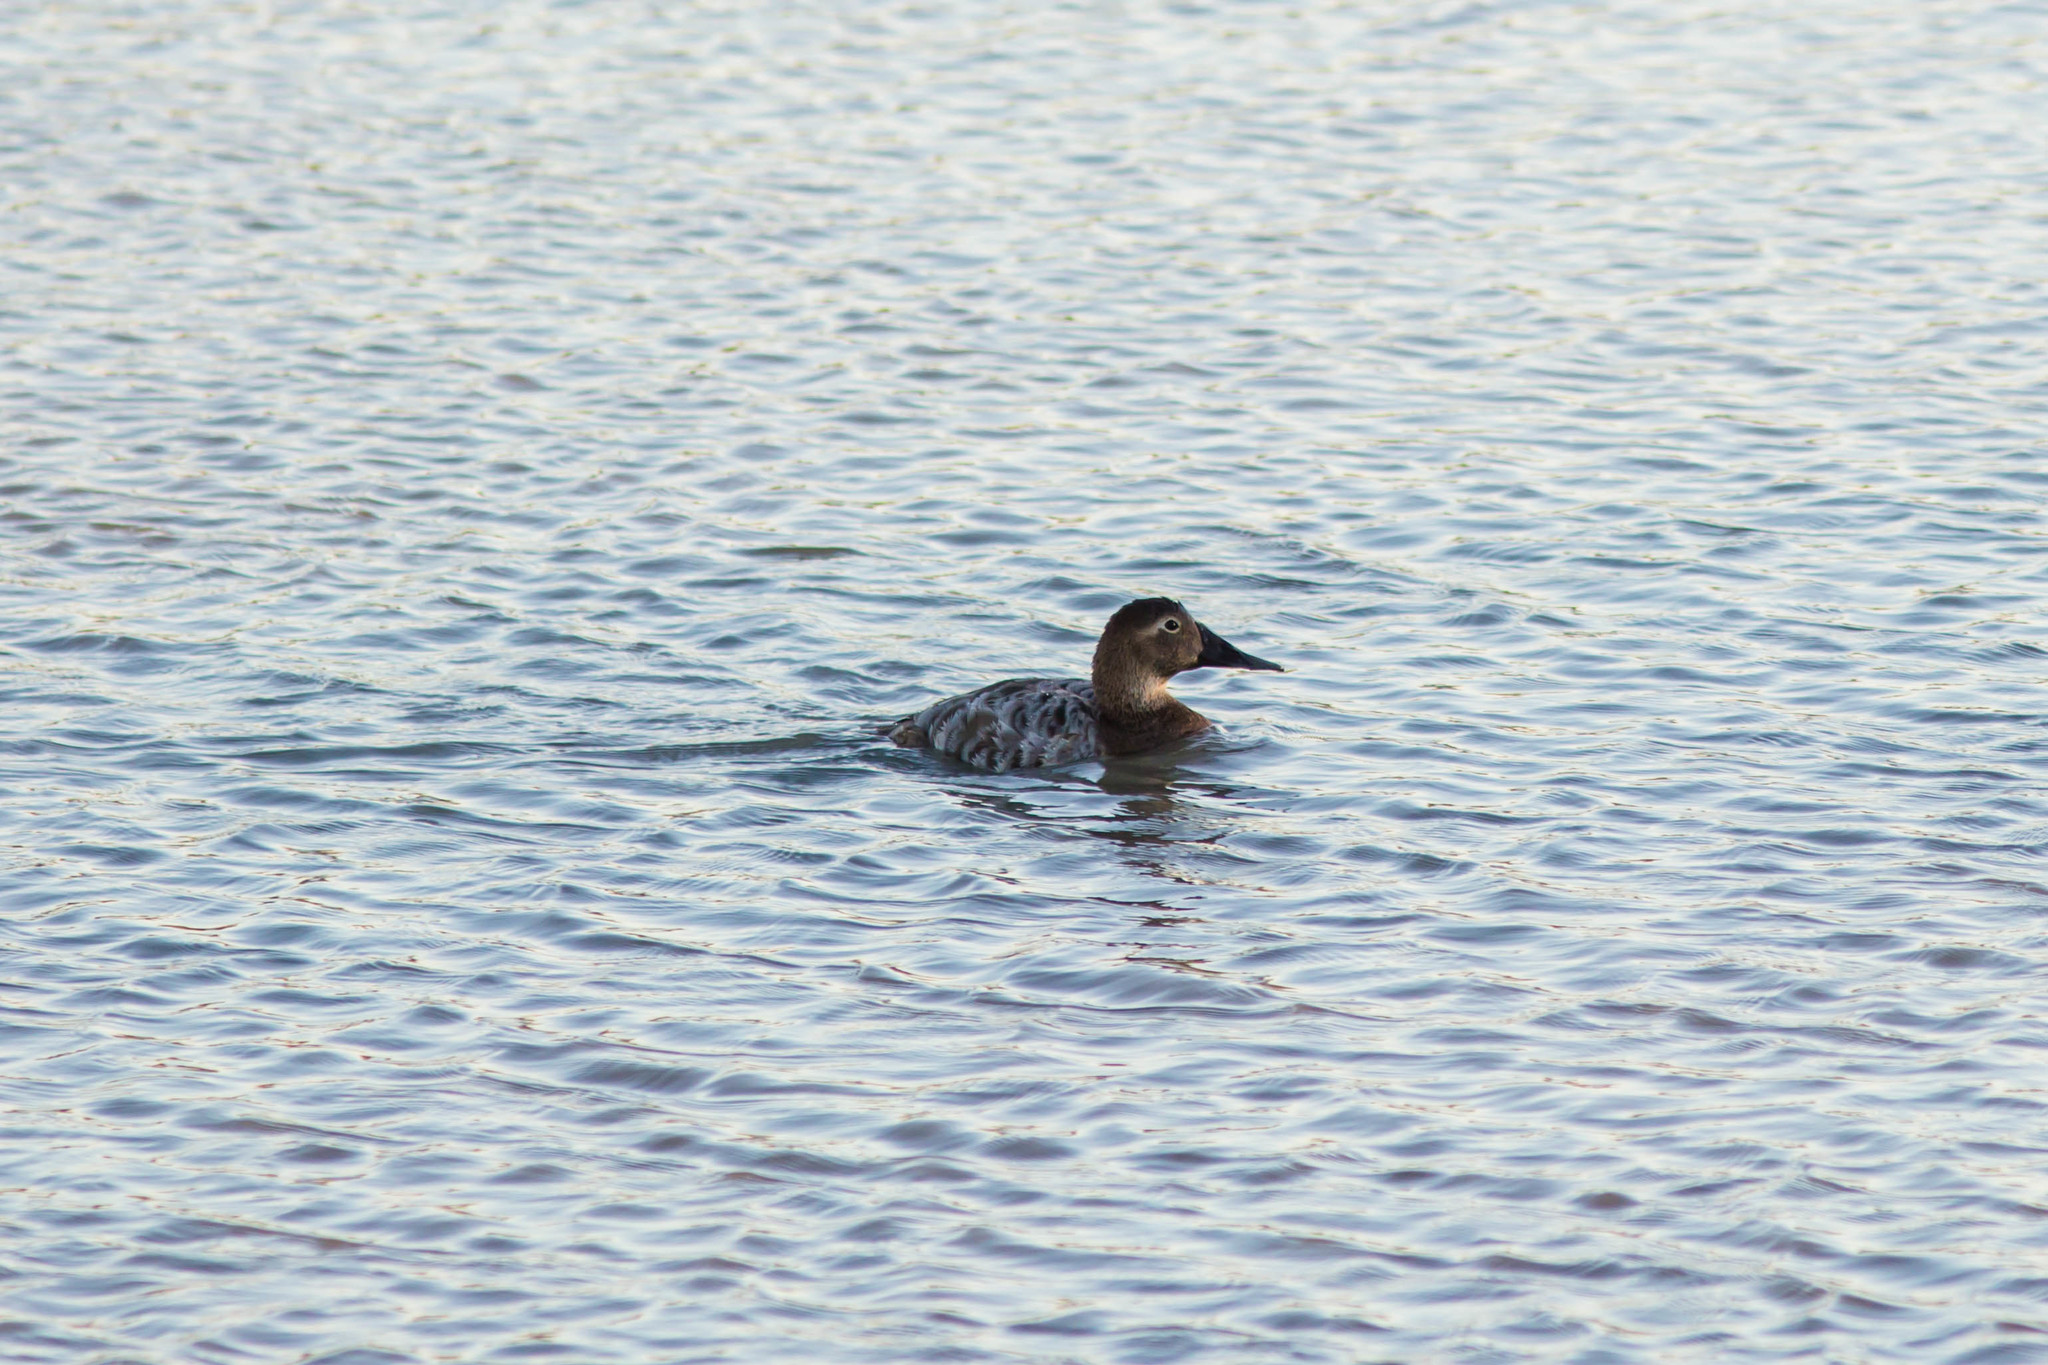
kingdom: Animalia
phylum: Chordata
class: Aves
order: Anseriformes
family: Anatidae
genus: Aythya
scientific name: Aythya valisineria
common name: Canvasback
